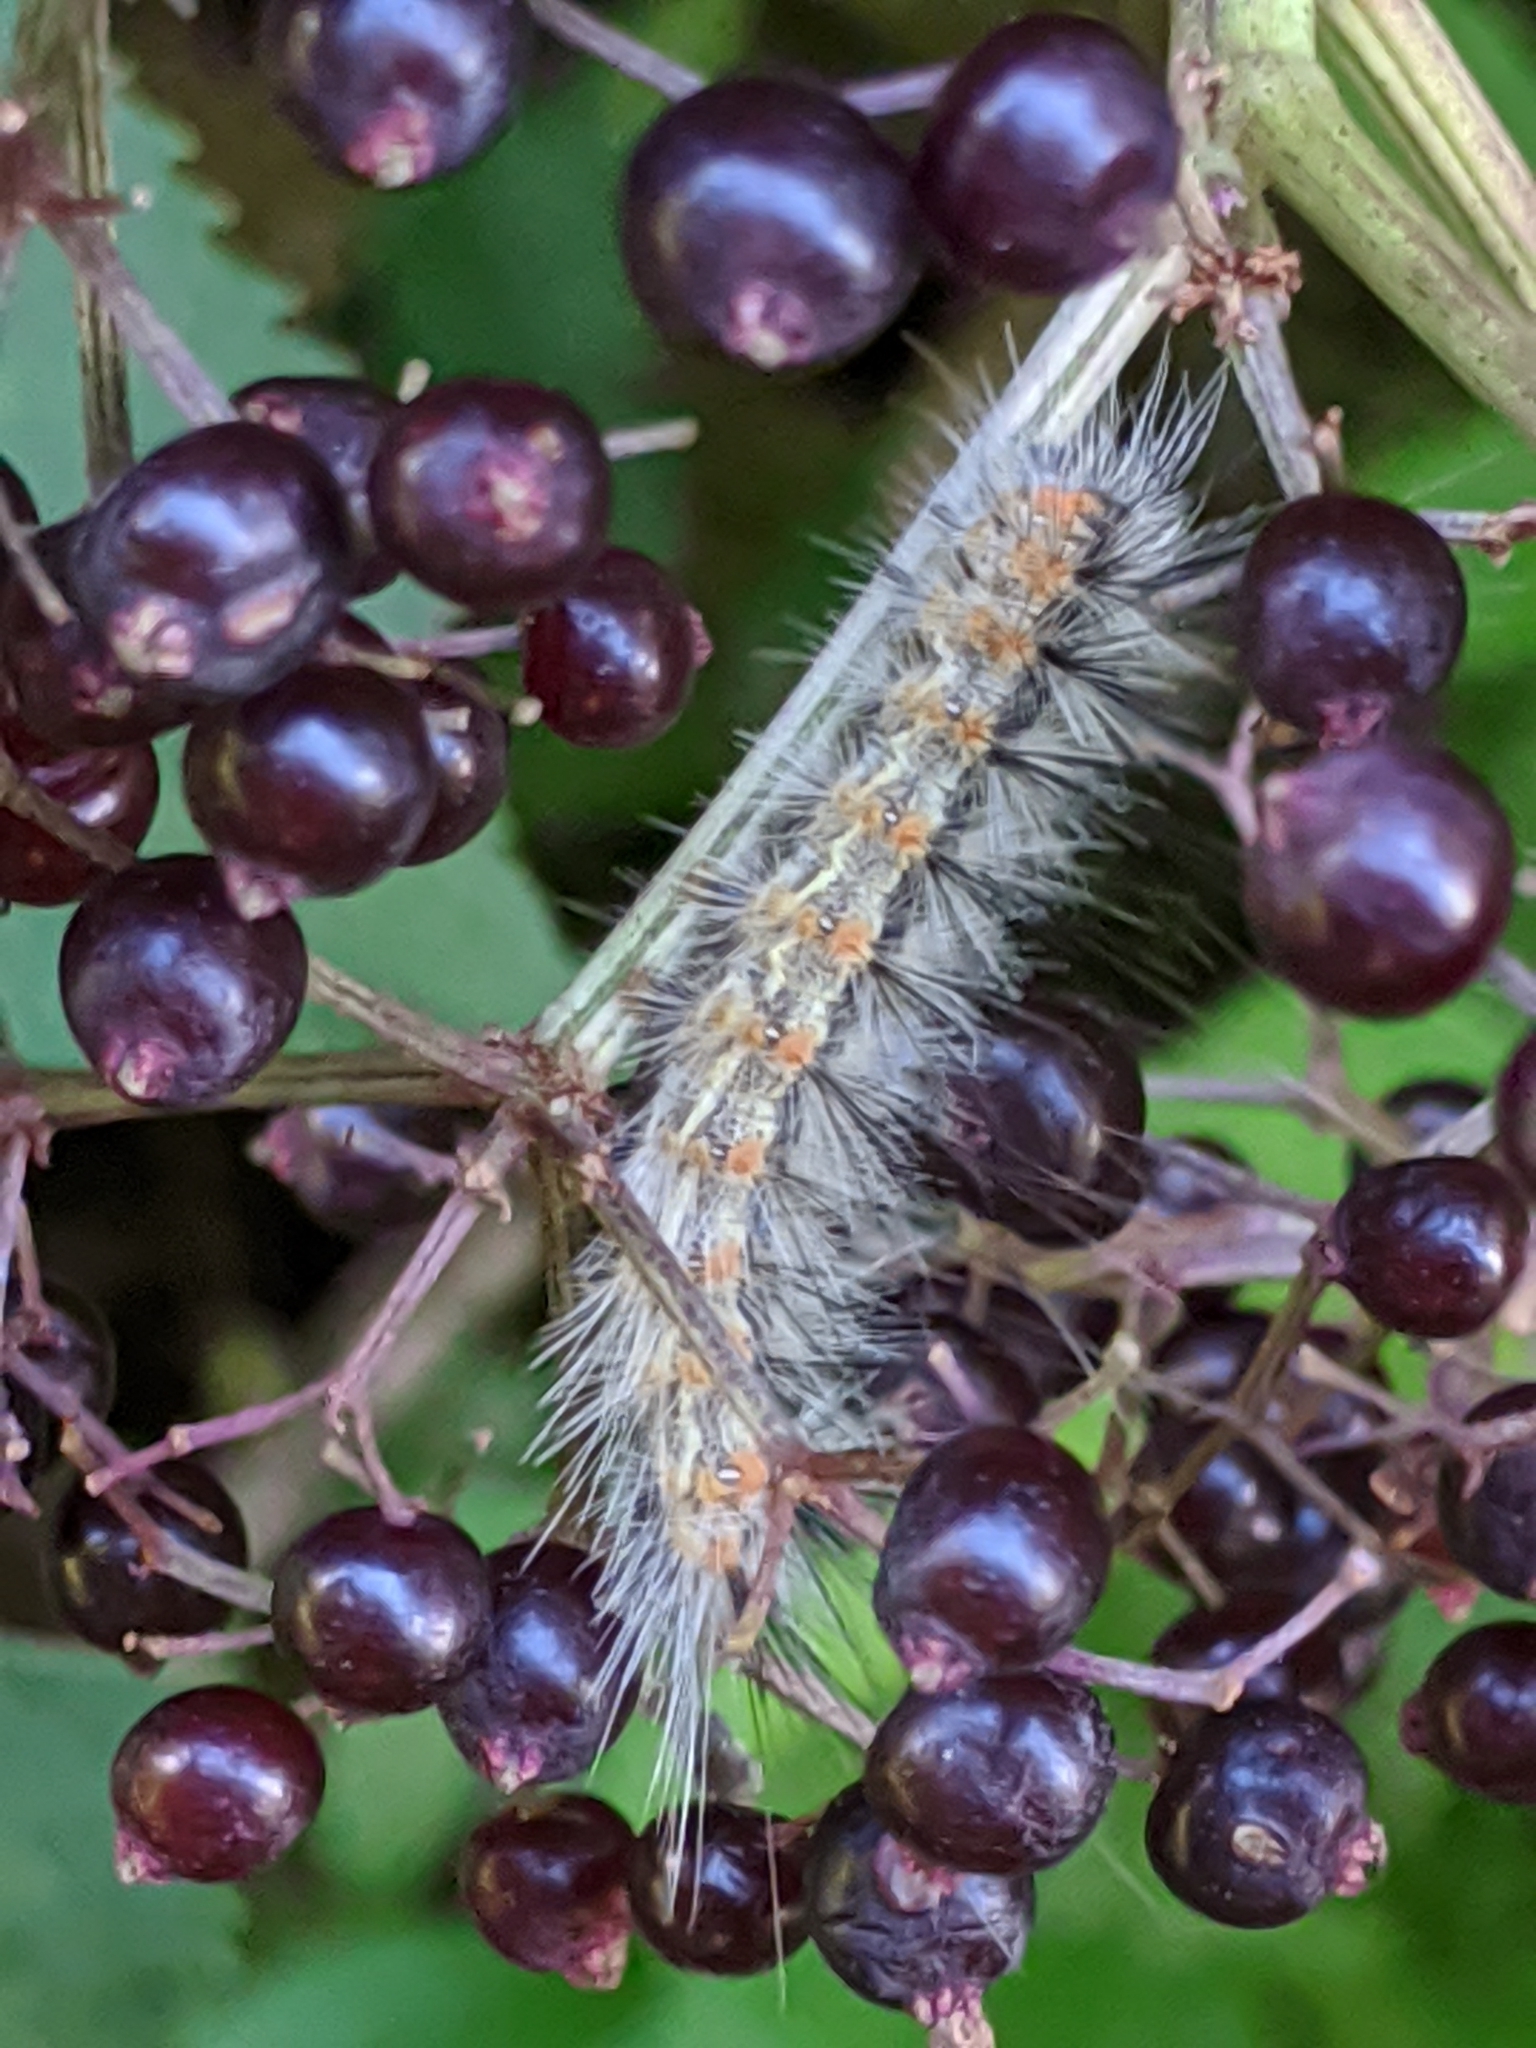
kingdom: Animalia
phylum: Arthropoda
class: Insecta
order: Lepidoptera
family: Erebidae
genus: Hyphantria
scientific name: Hyphantria cunea
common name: American white moth
